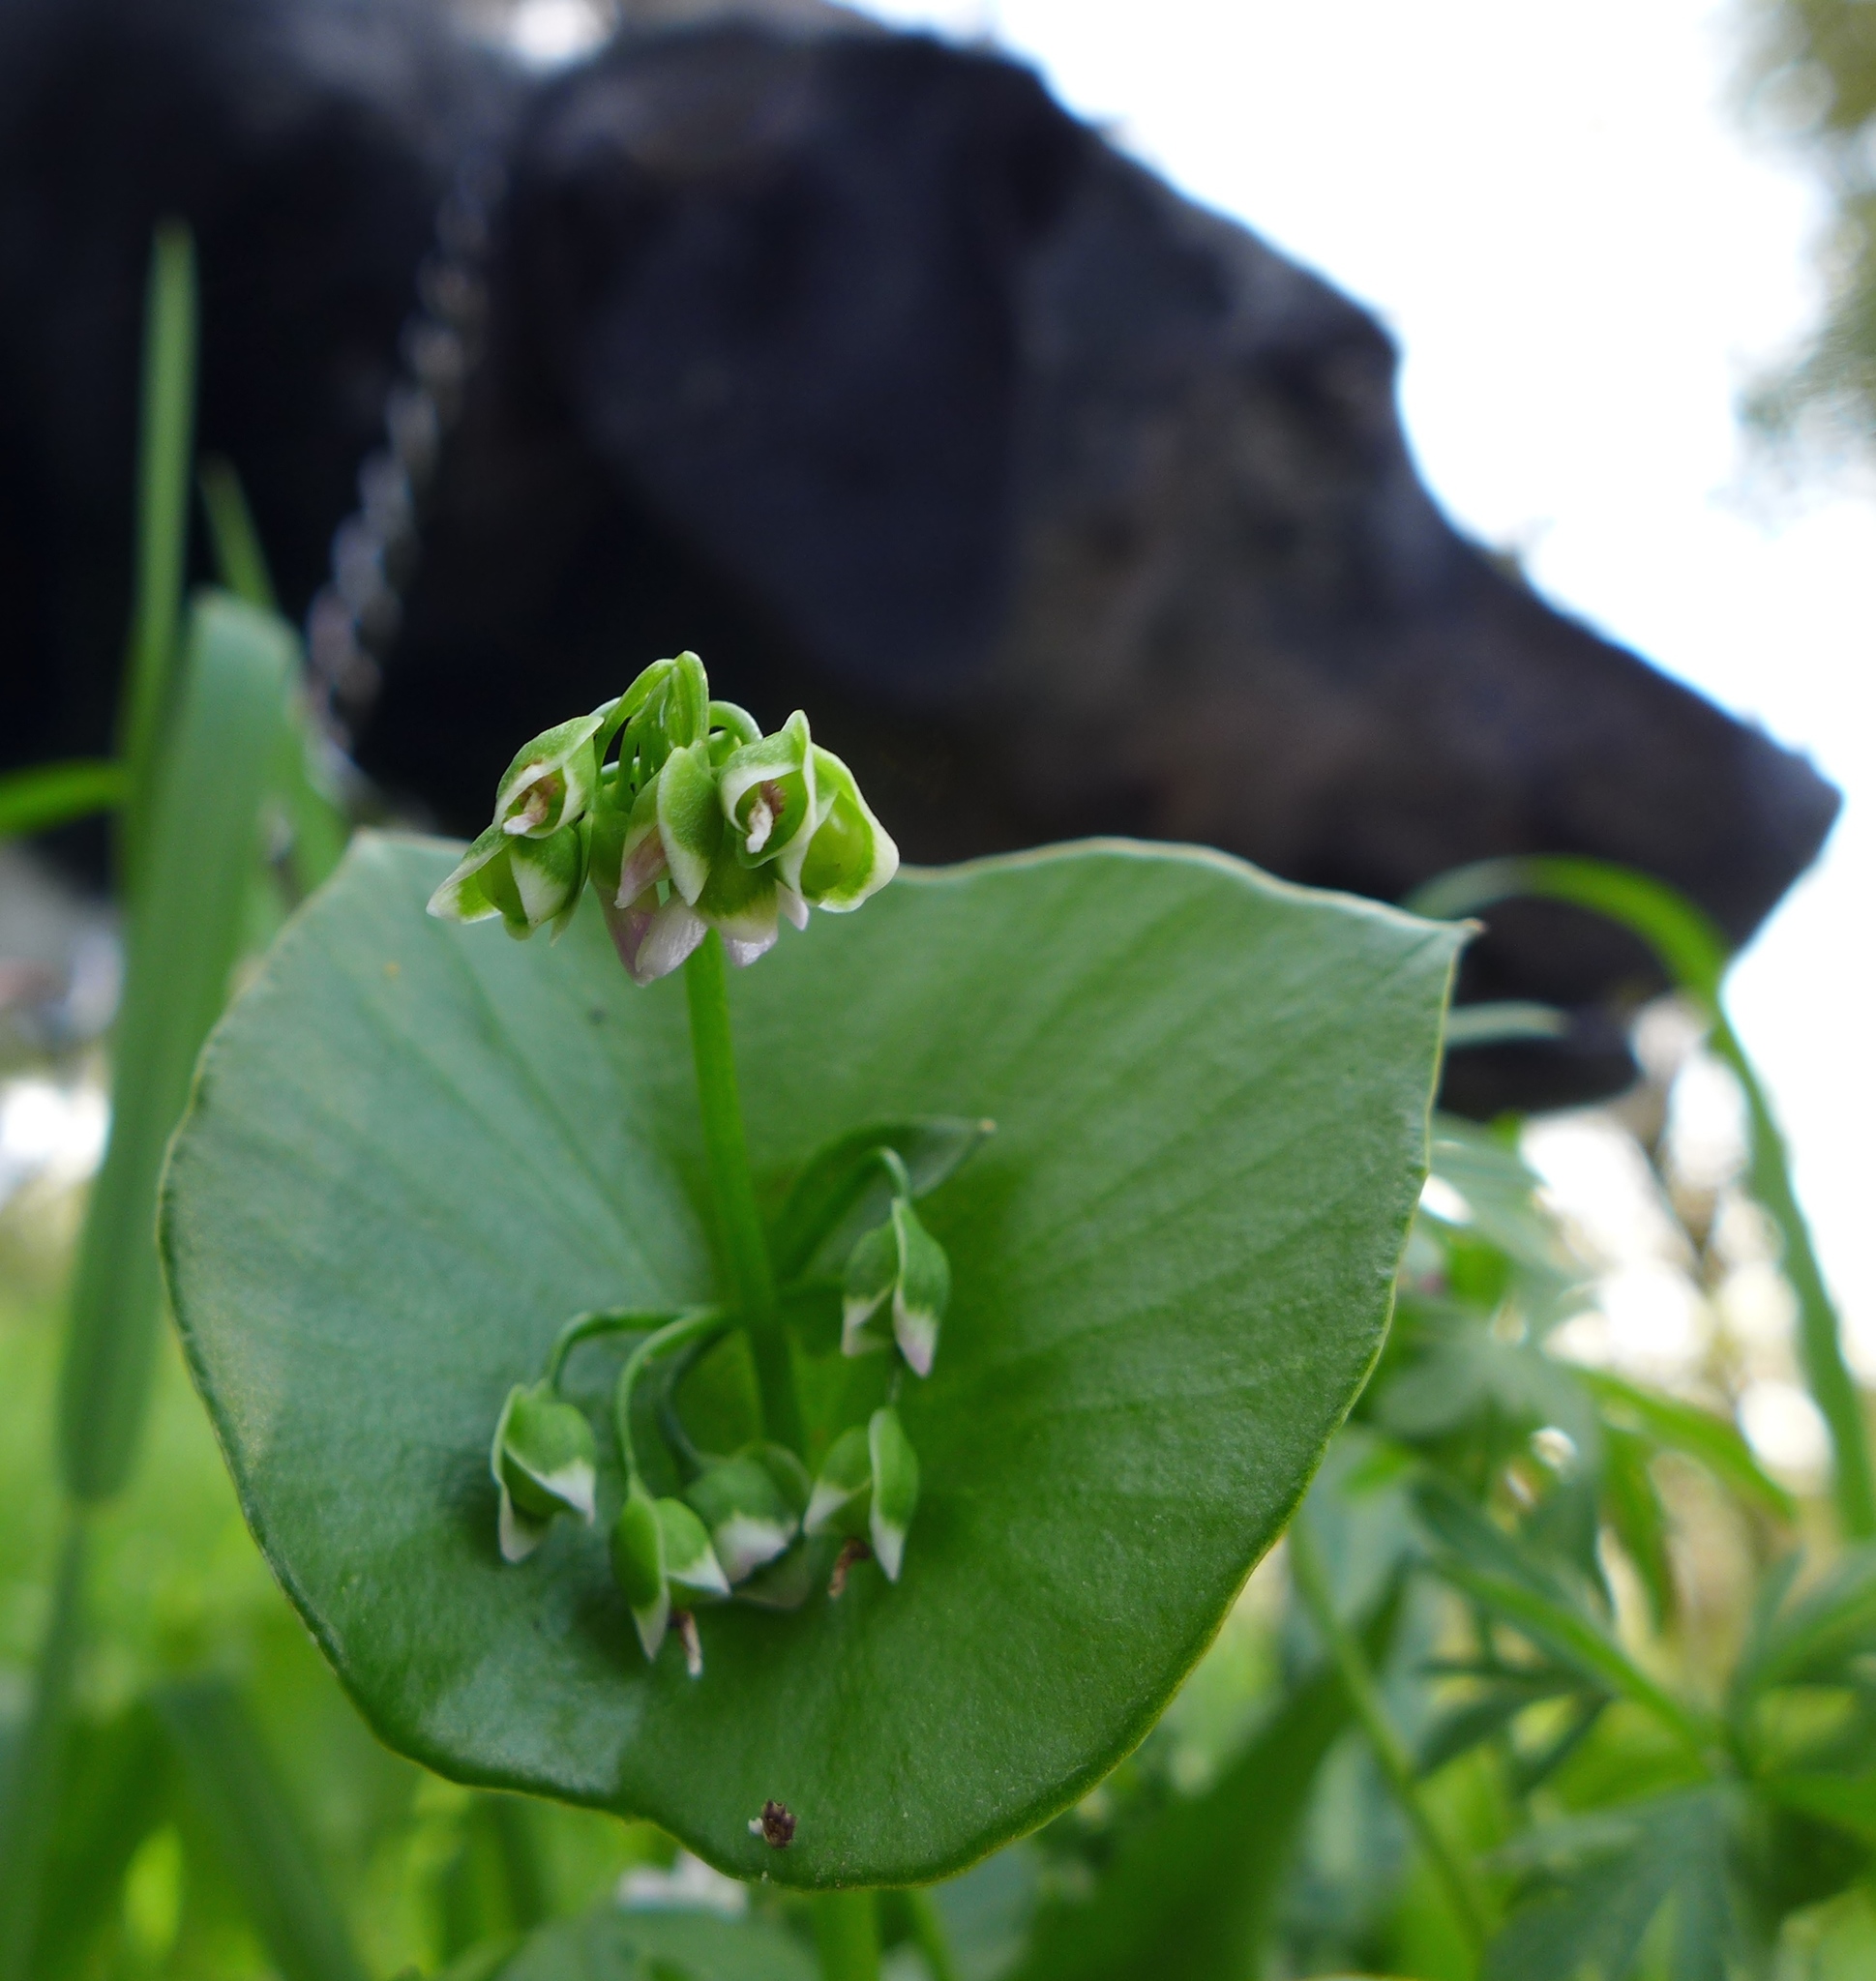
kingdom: Plantae
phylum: Tracheophyta
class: Magnoliopsida
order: Caryophyllales
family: Montiaceae
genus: Claytonia
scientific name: Claytonia perfoliata
